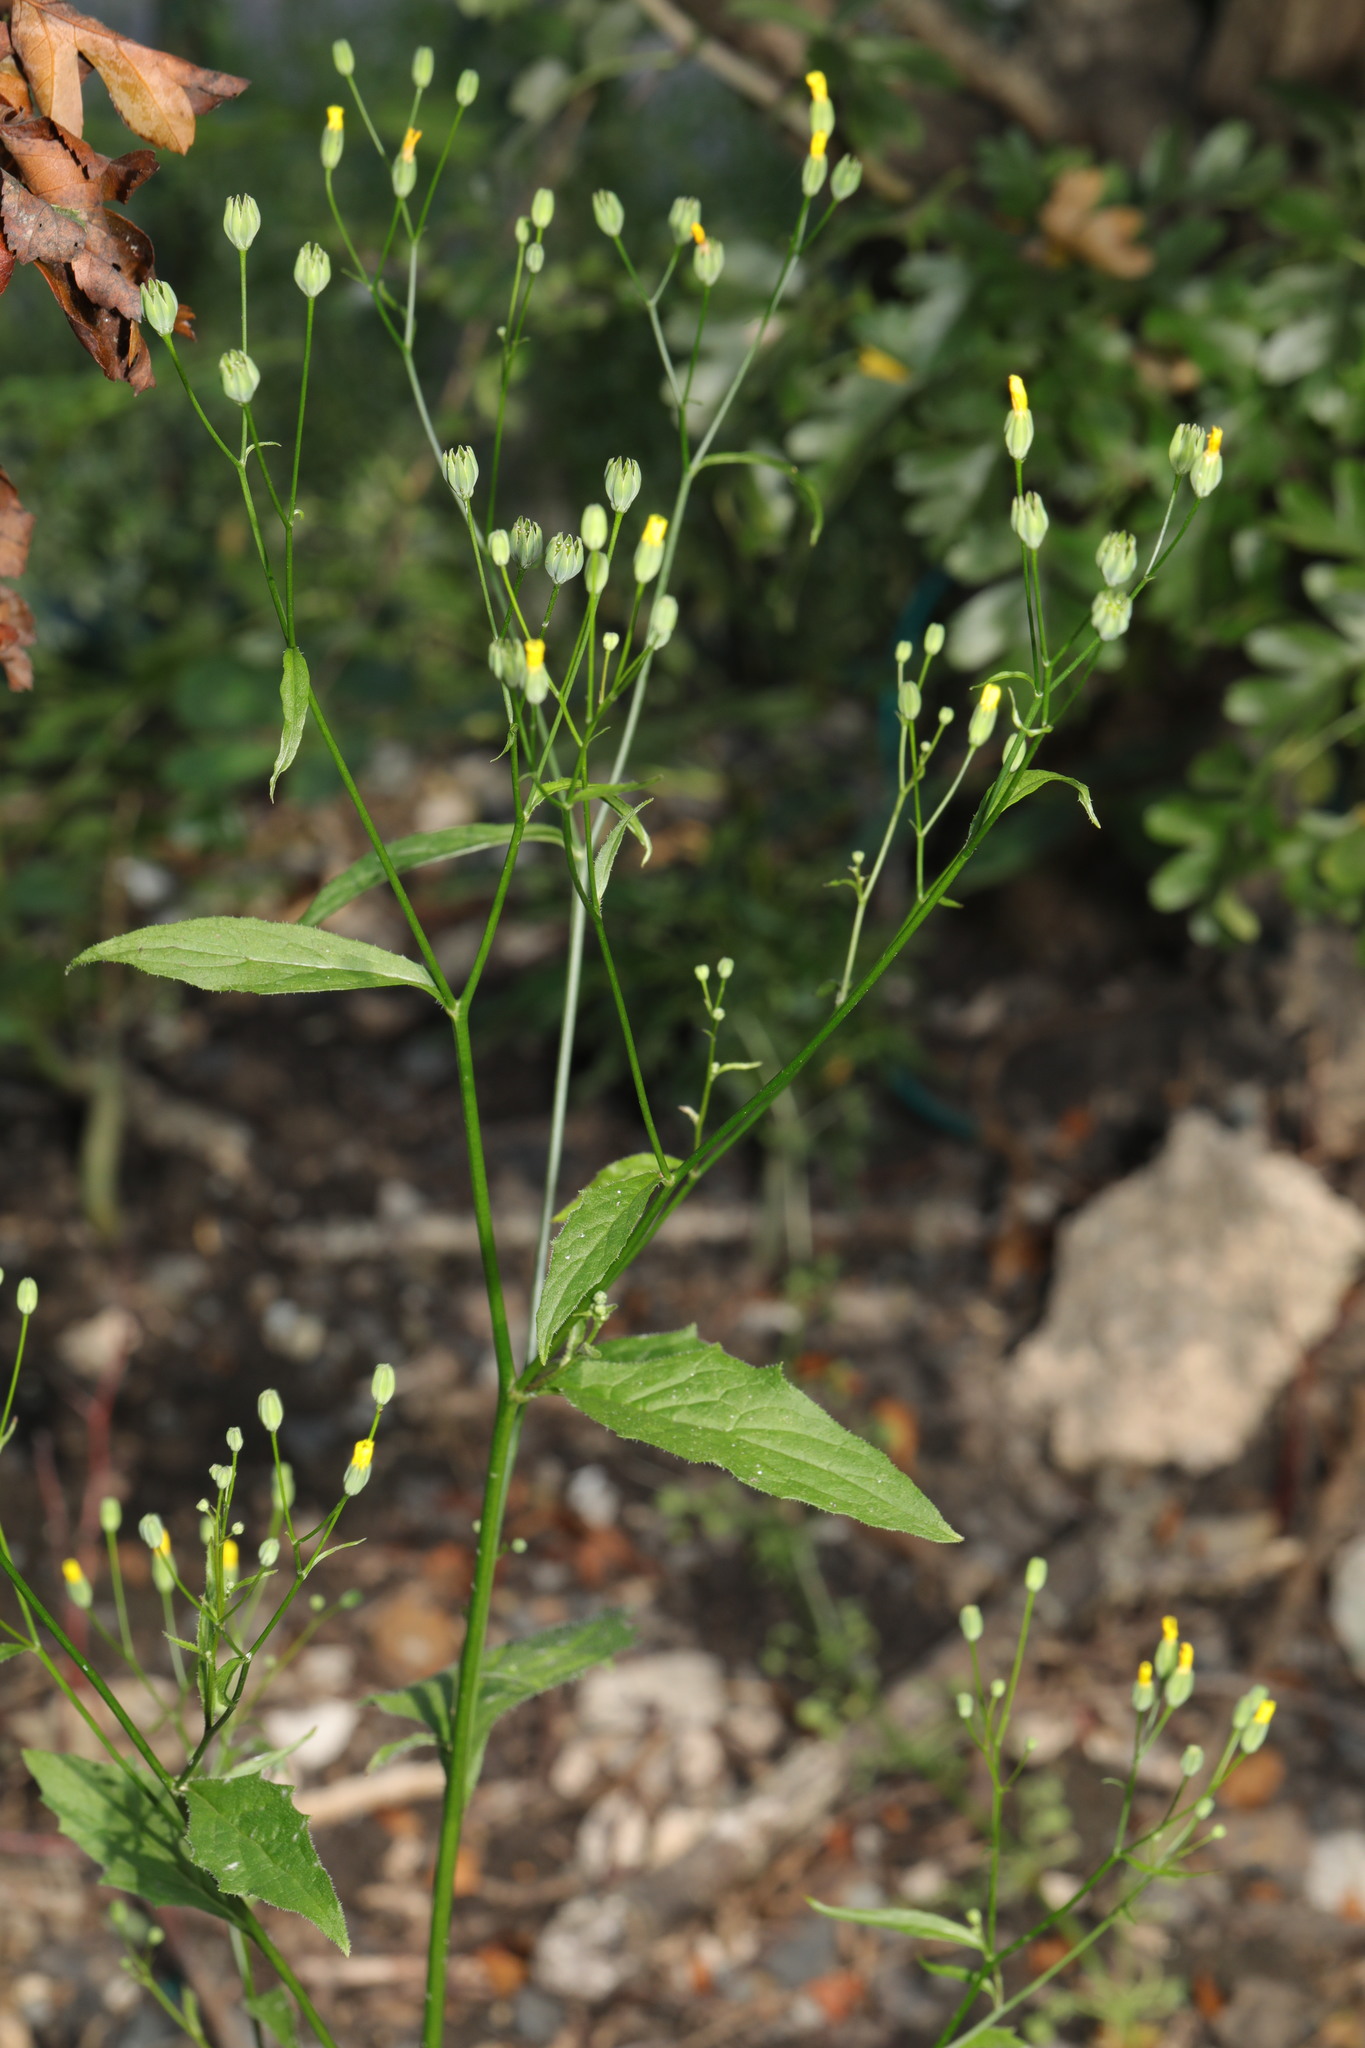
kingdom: Plantae
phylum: Tracheophyta
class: Magnoliopsida
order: Asterales
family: Asteraceae
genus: Lapsana
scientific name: Lapsana communis
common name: Nipplewort
